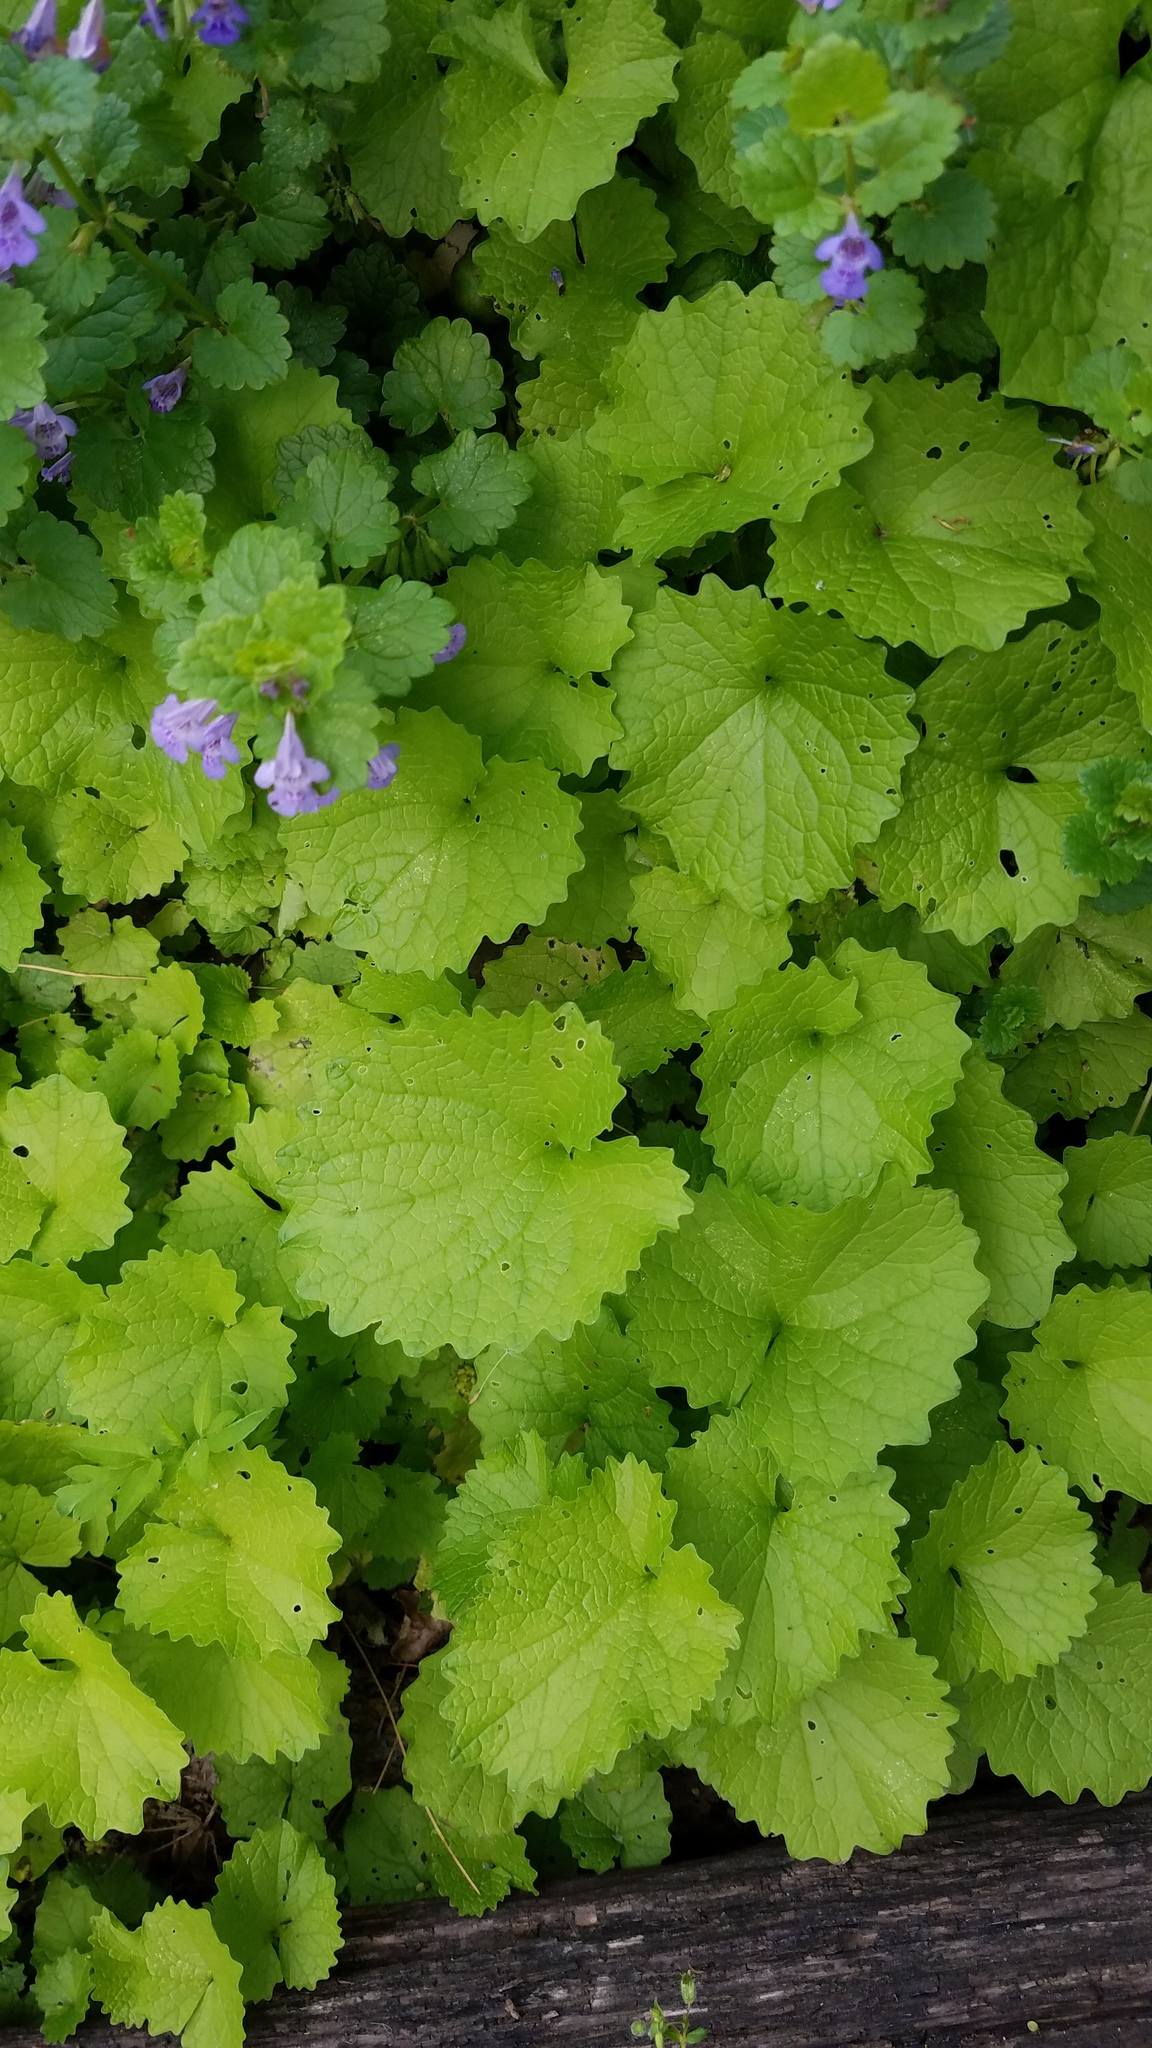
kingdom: Plantae
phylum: Tracheophyta
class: Magnoliopsida
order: Brassicales
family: Brassicaceae
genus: Alliaria
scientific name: Alliaria petiolata
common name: Garlic mustard
